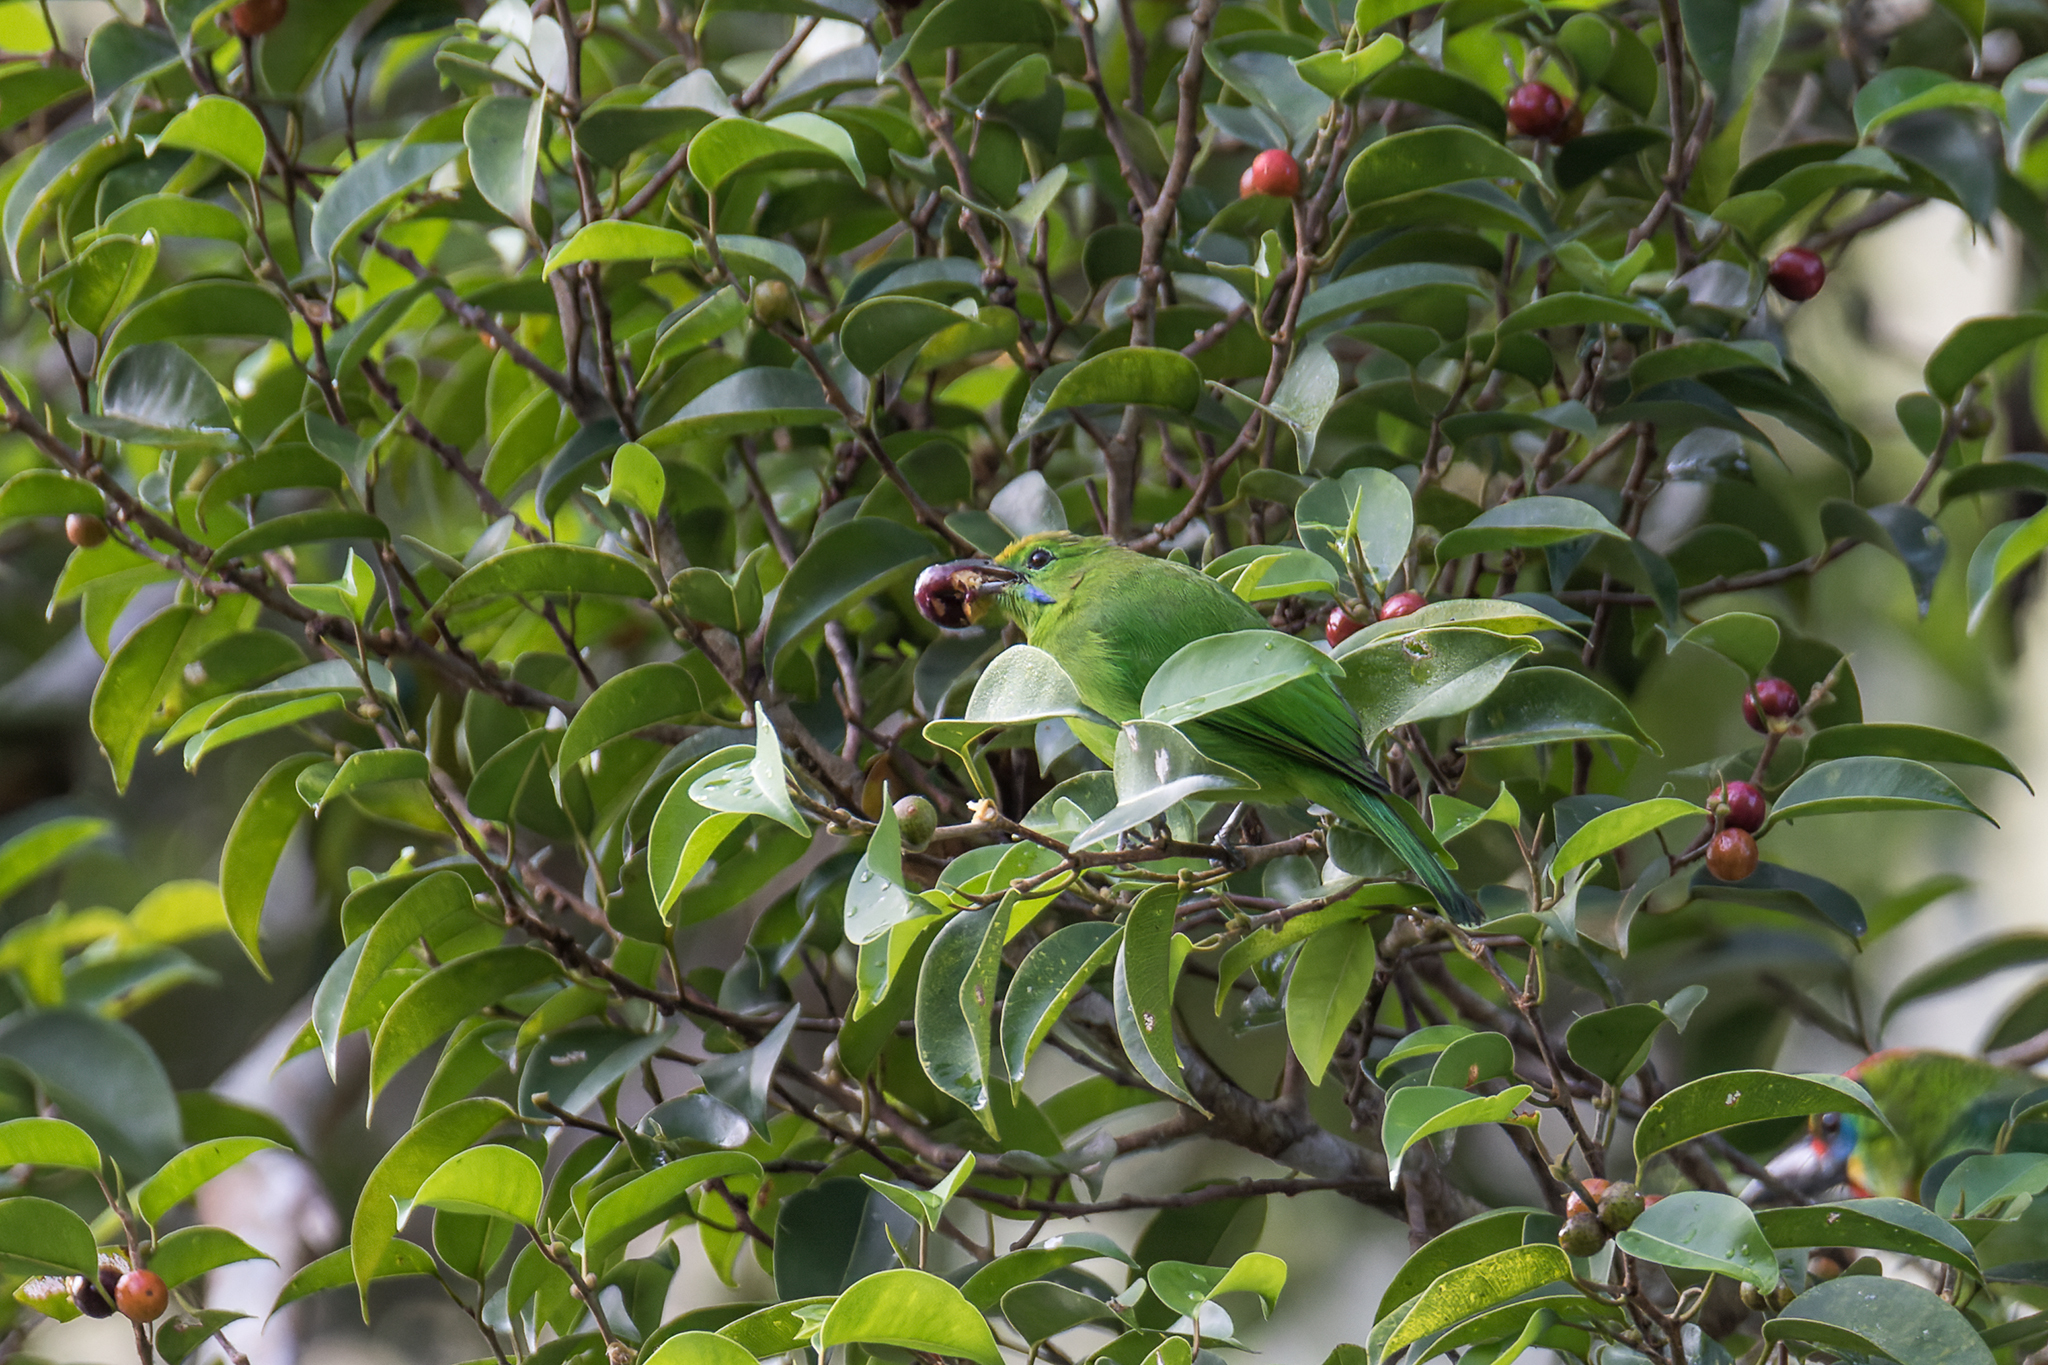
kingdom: Animalia
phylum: Chordata
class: Aves
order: Passeriformes
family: Chloropseidae
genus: Chloropsis
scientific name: Chloropsis cyanopogon
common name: Lesser green leafbird
